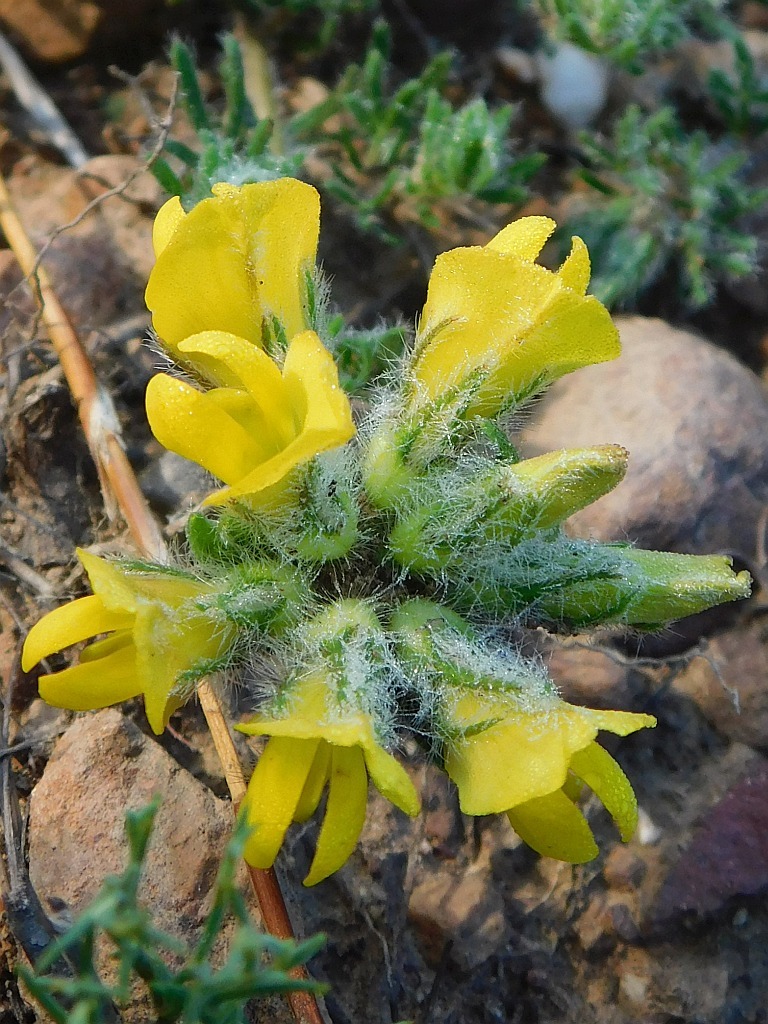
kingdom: Plantae
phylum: Tracheophyta
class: Magnoliopsida
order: Fabales
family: Fabaceae
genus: Lotononis
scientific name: Lotononis involucrata
